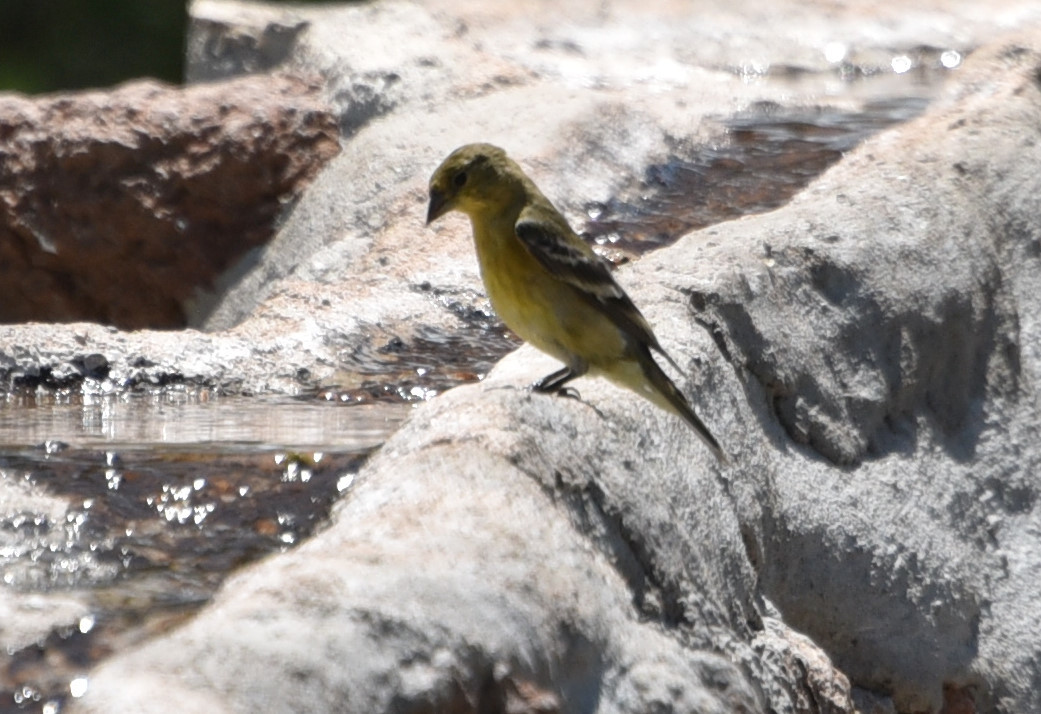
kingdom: Animalia
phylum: Chordata
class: Aves
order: Passeriformes
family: Fringillidae
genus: Spinus
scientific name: Spinus psaltria
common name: Lesser goldfinch
